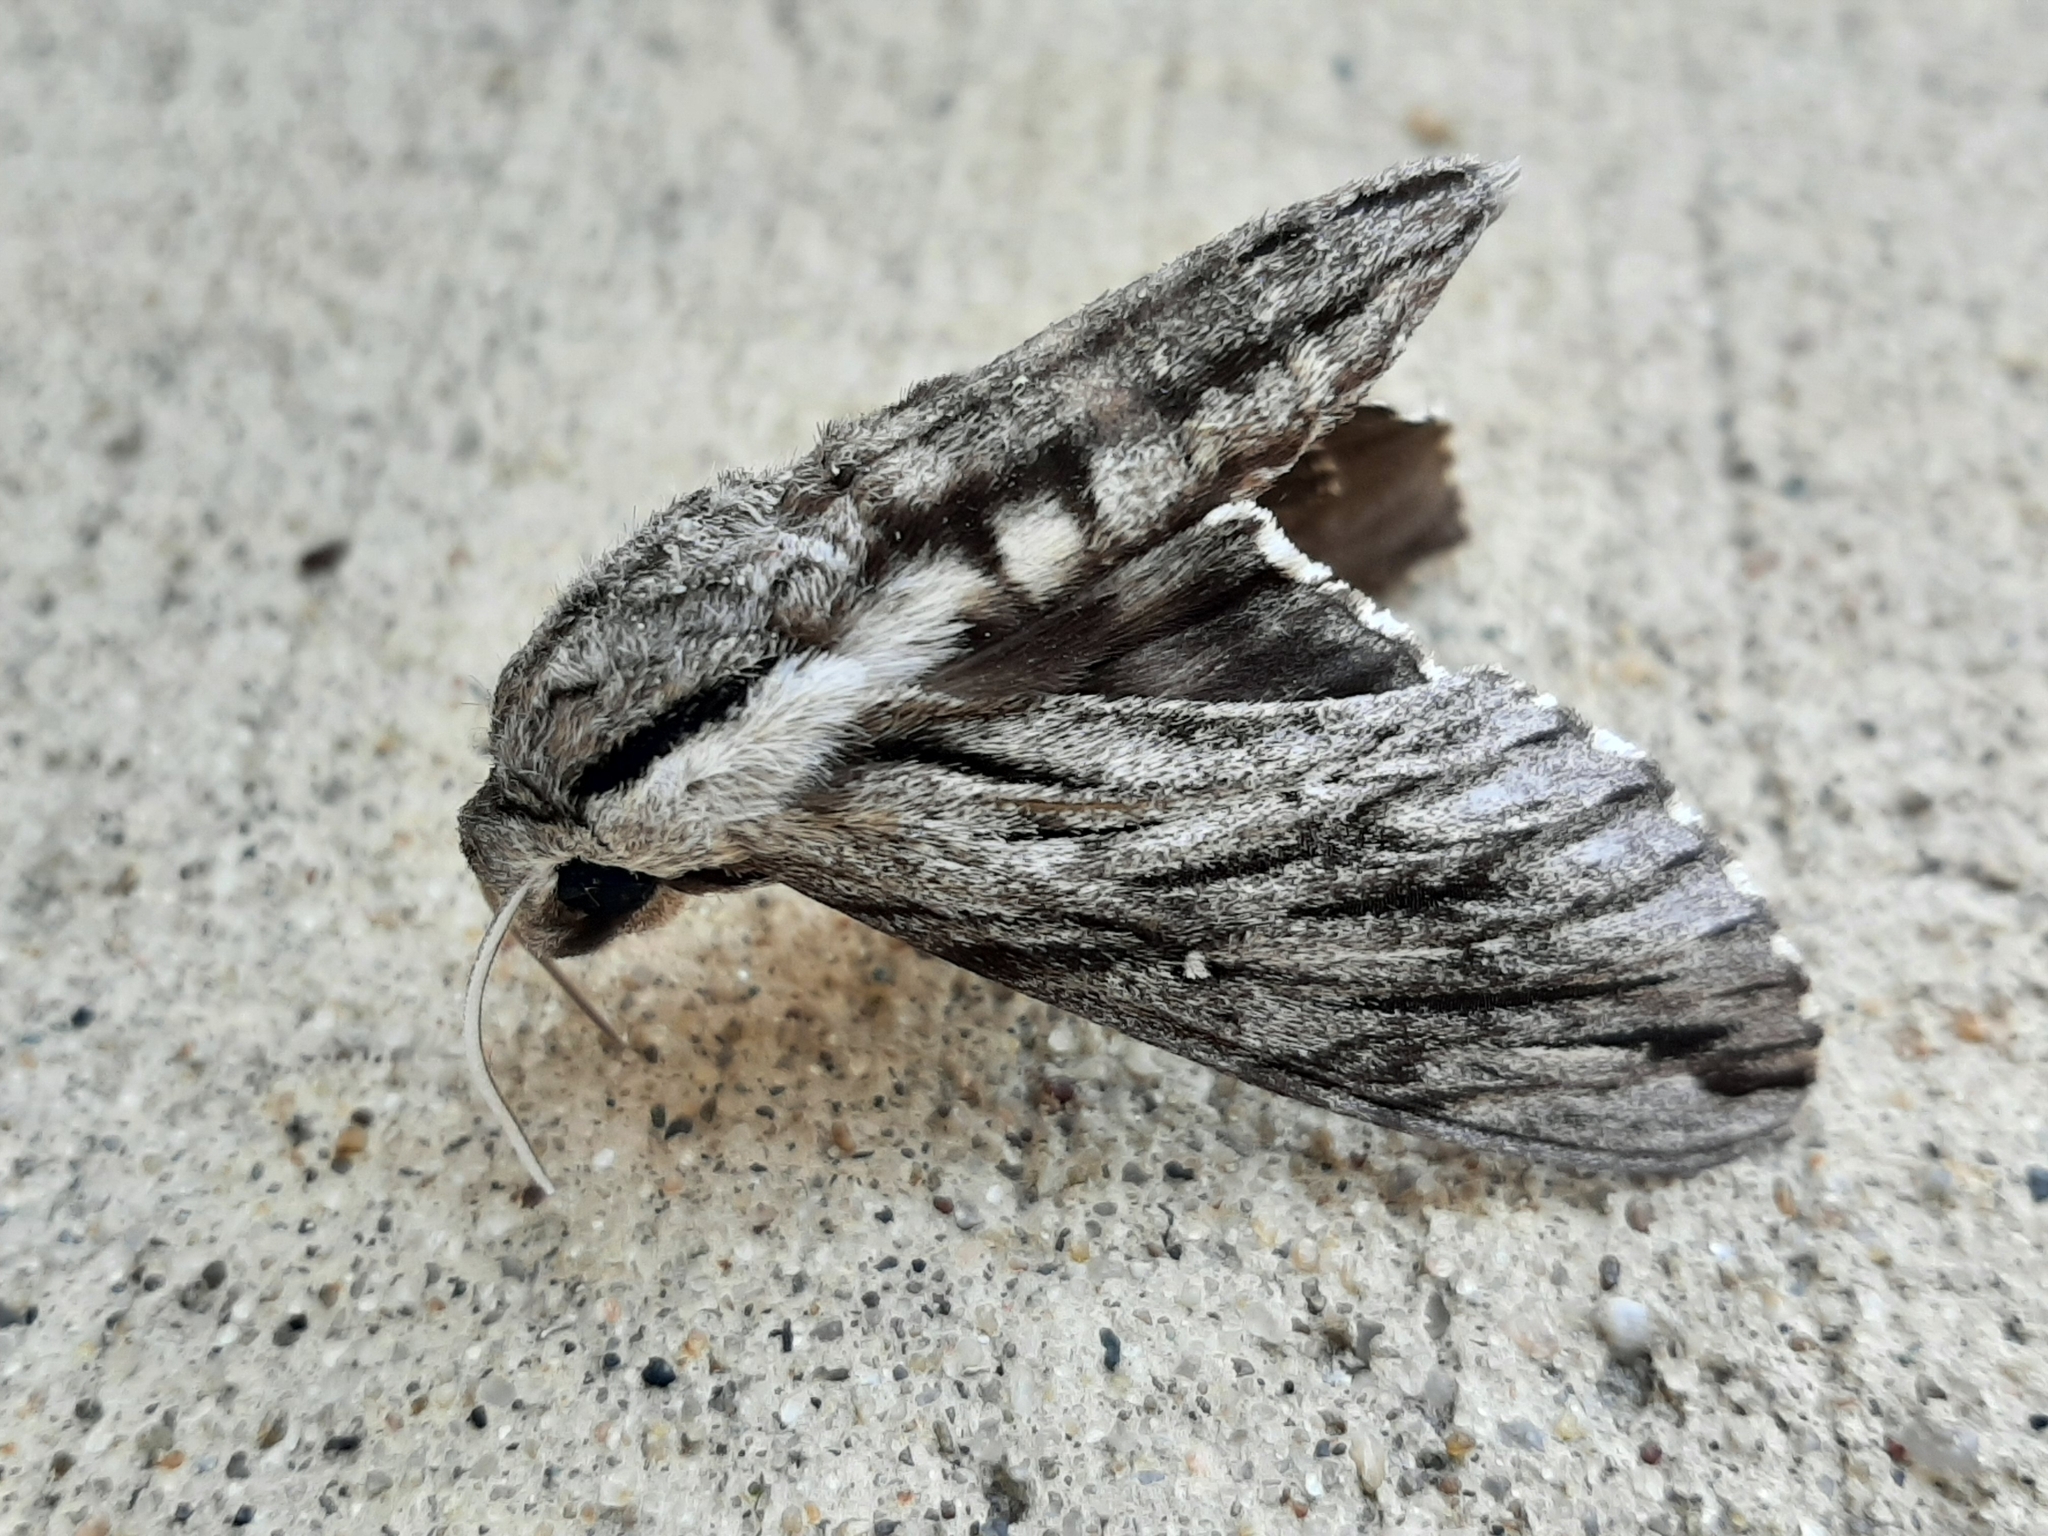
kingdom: Animalia
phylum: Arthropoda
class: Insecta
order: Lepidoptera
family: Sphingidae
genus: Paratrea
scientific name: Paratrea plebeja
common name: Plebian sphinx
